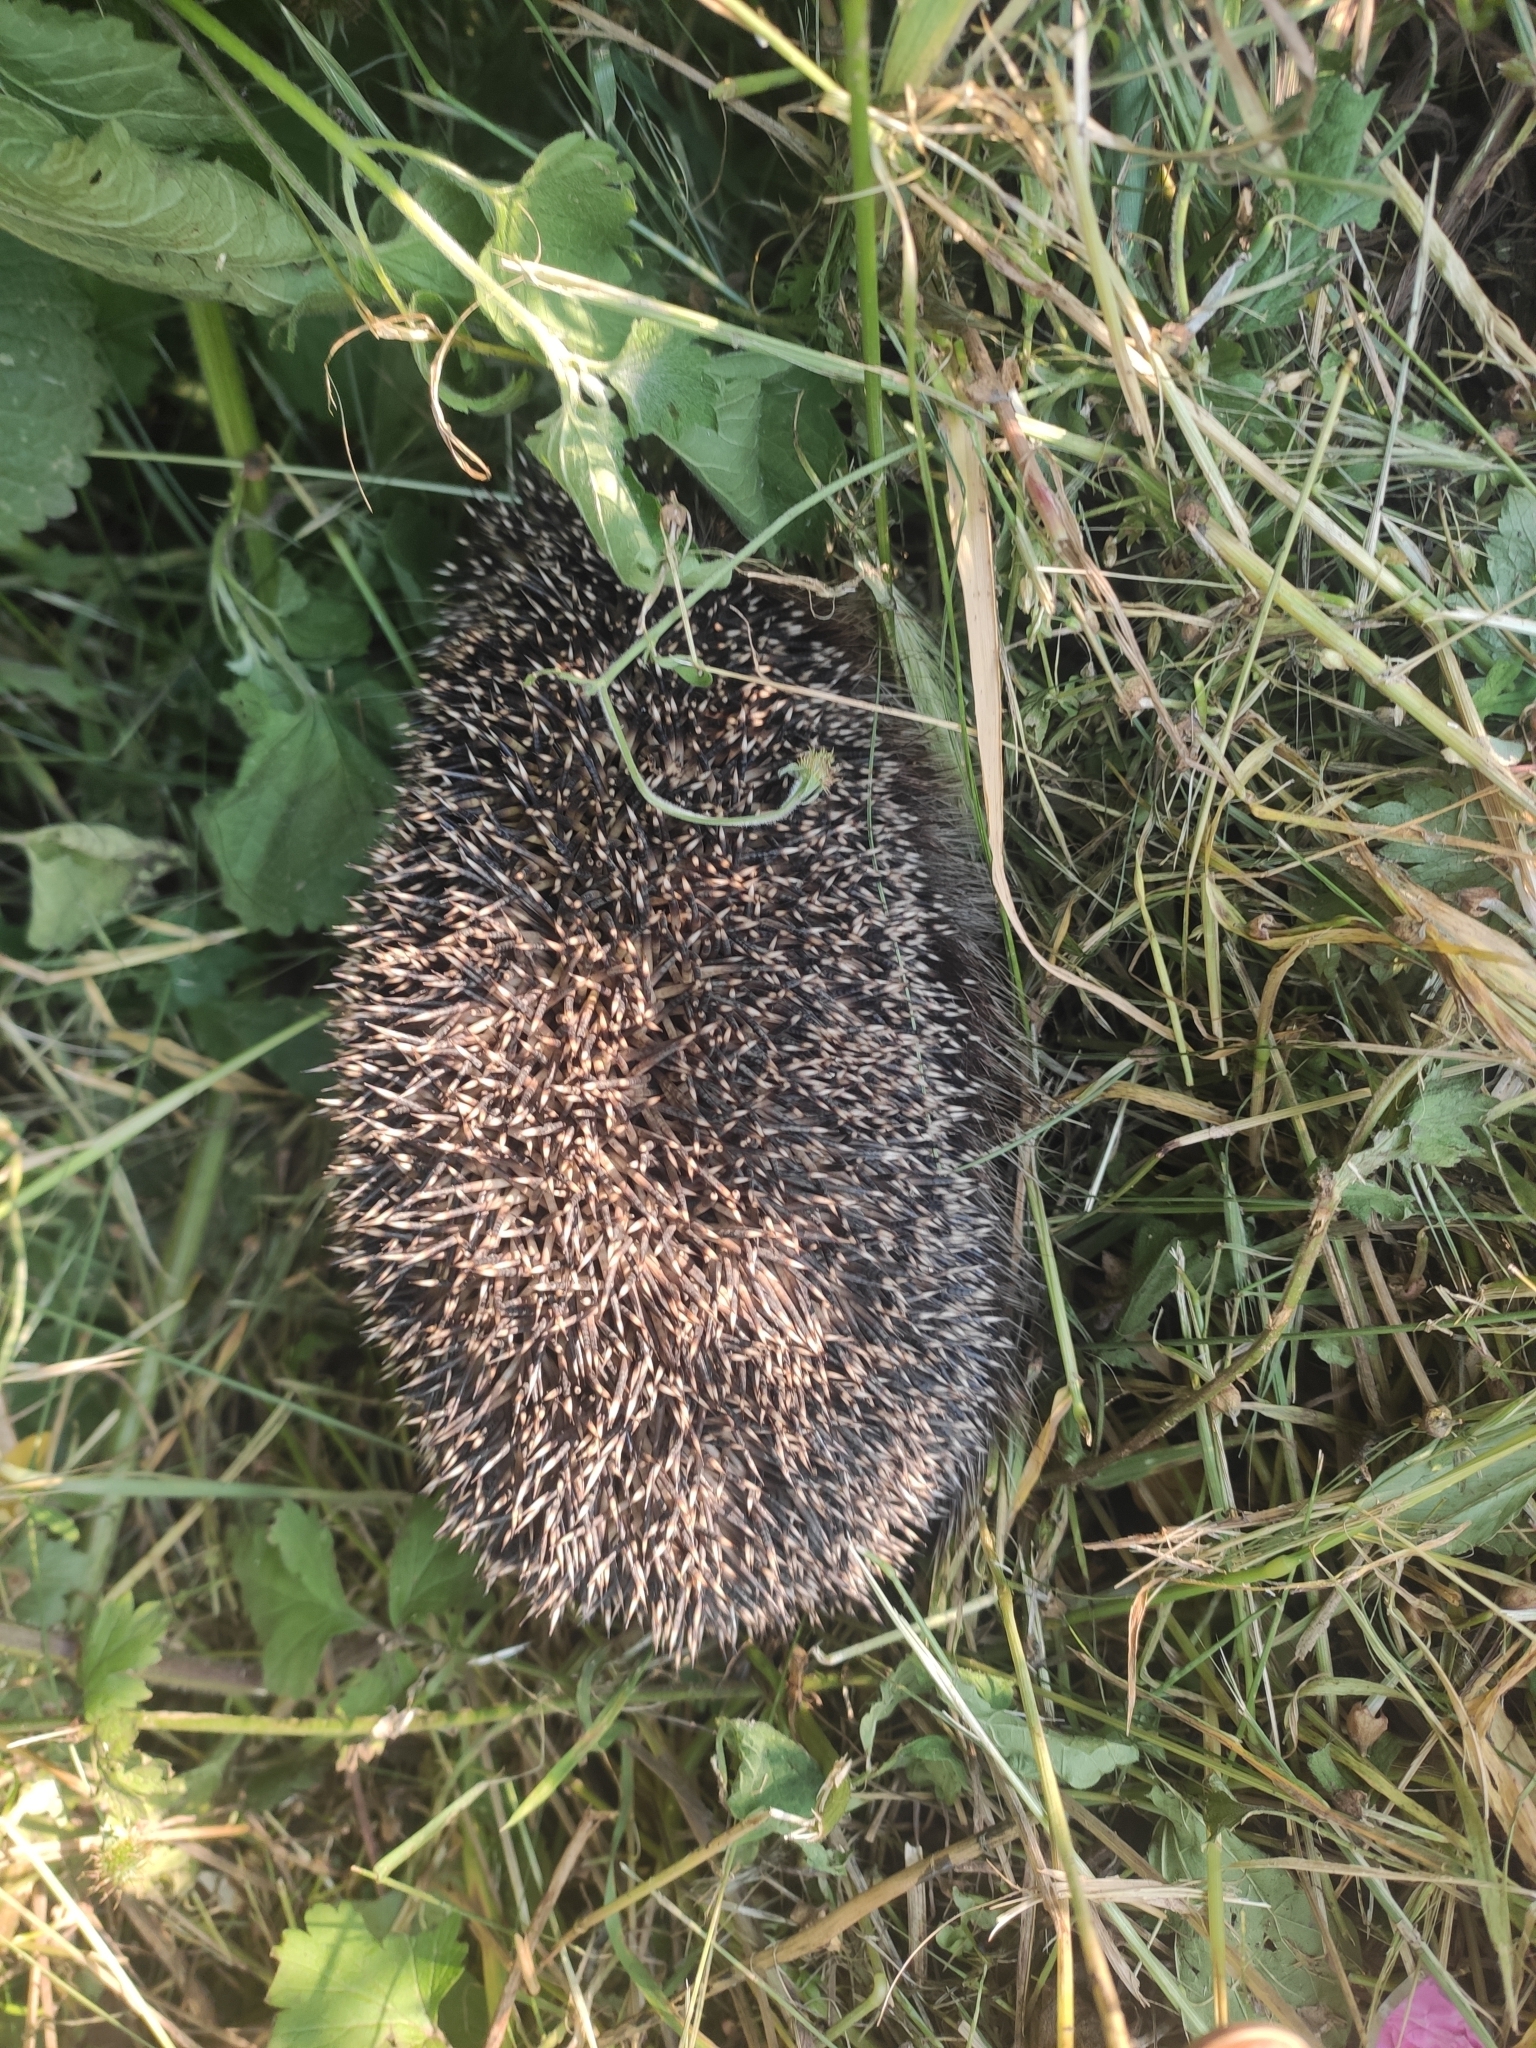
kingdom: Animalia
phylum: Chordata
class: Mammalia
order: Erinaceomorpha
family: Erinaceidae
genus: Erinaceus
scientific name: Erinaceus roumanicus
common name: Northern white-breasted hedgehog
